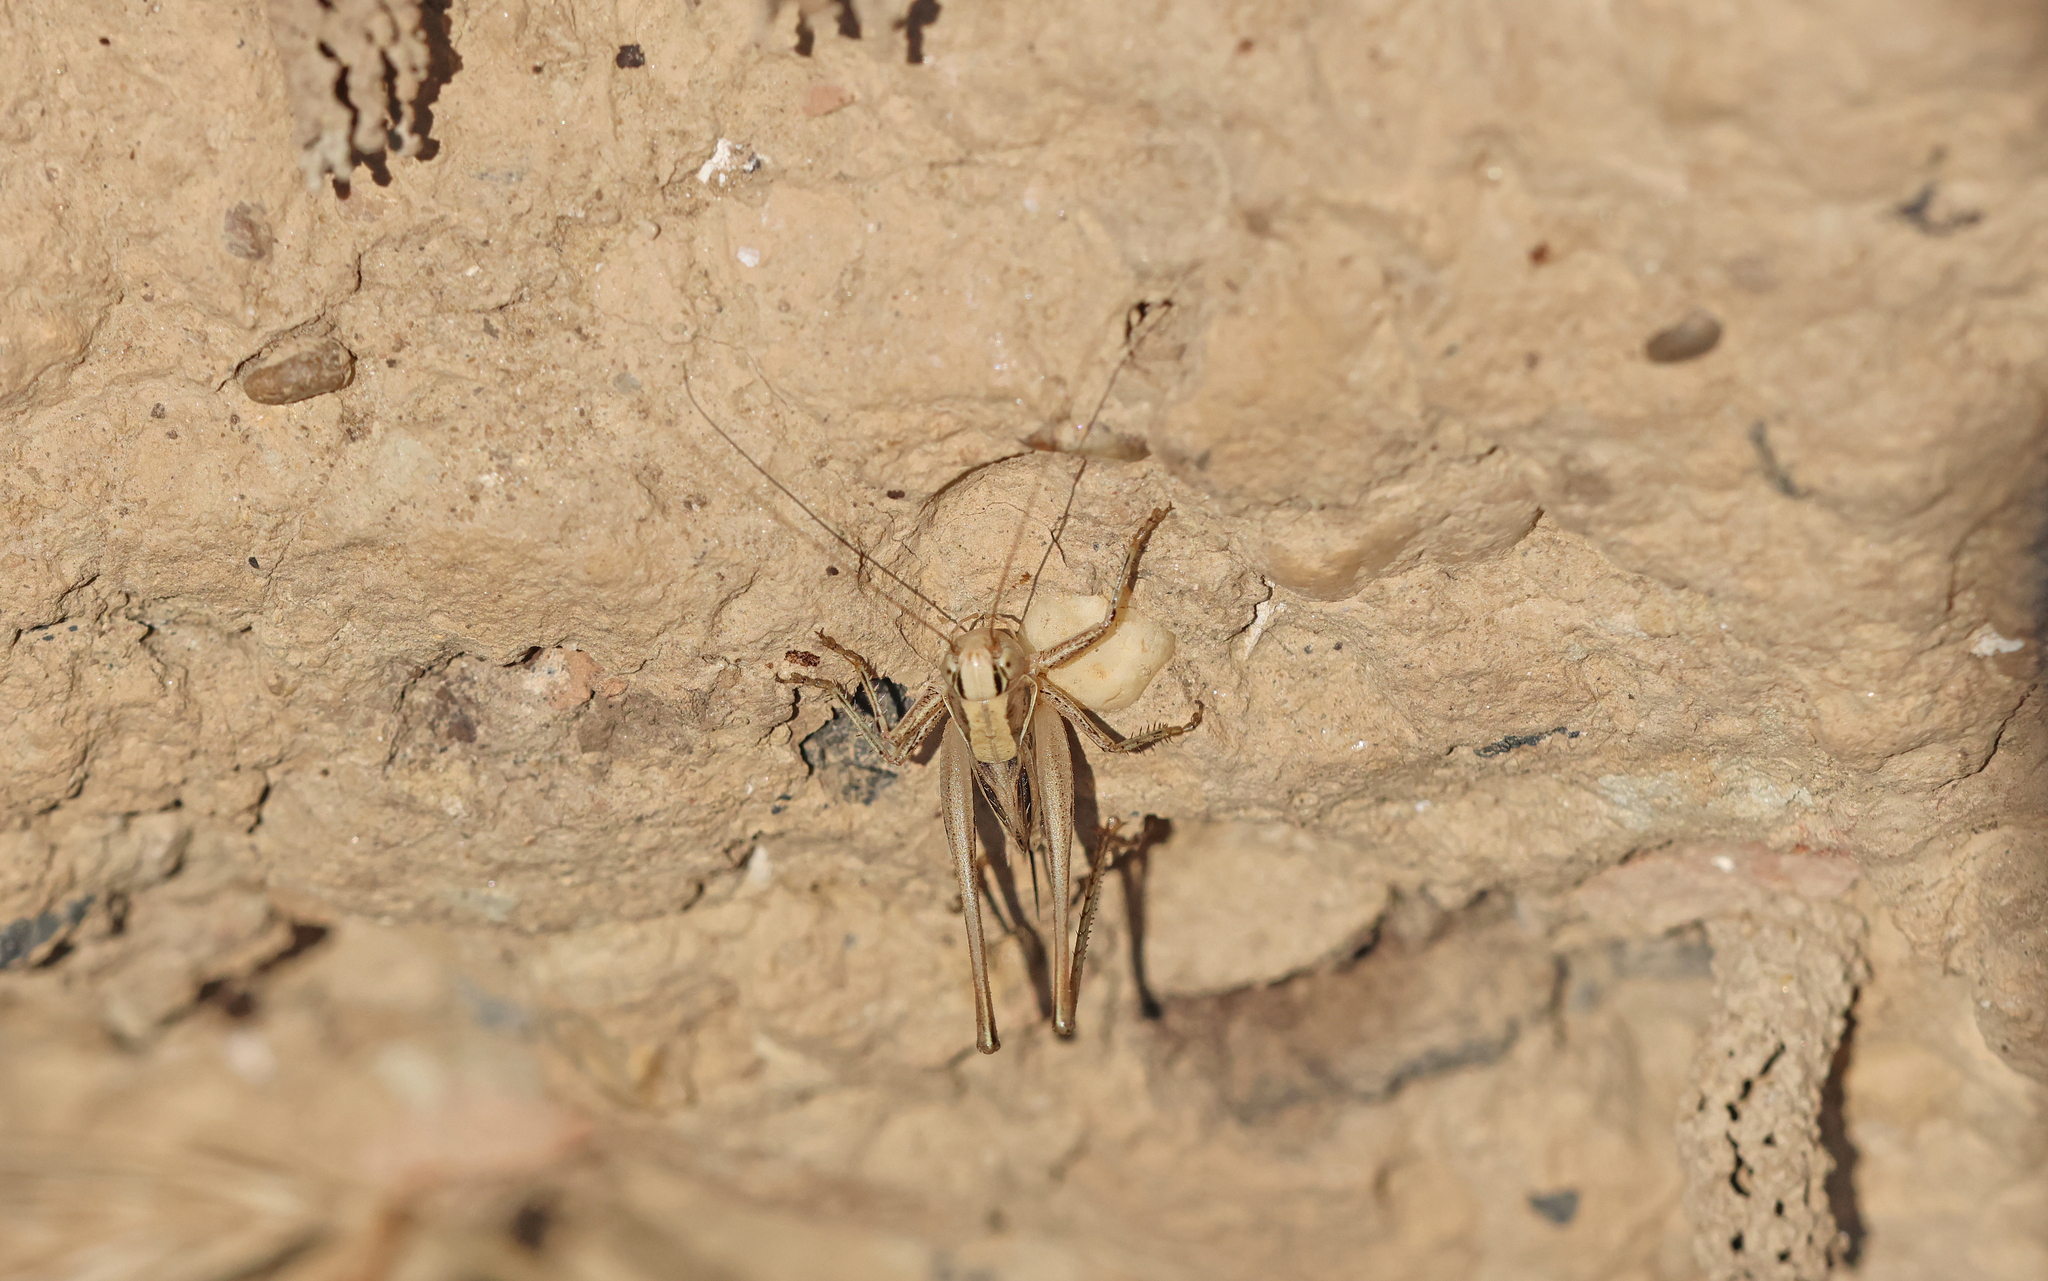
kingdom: Animalia
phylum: Arthropoda
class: Insecta
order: Orthoptera
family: Tettigoniidae
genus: Tessellana
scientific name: Tessellana veyseli
